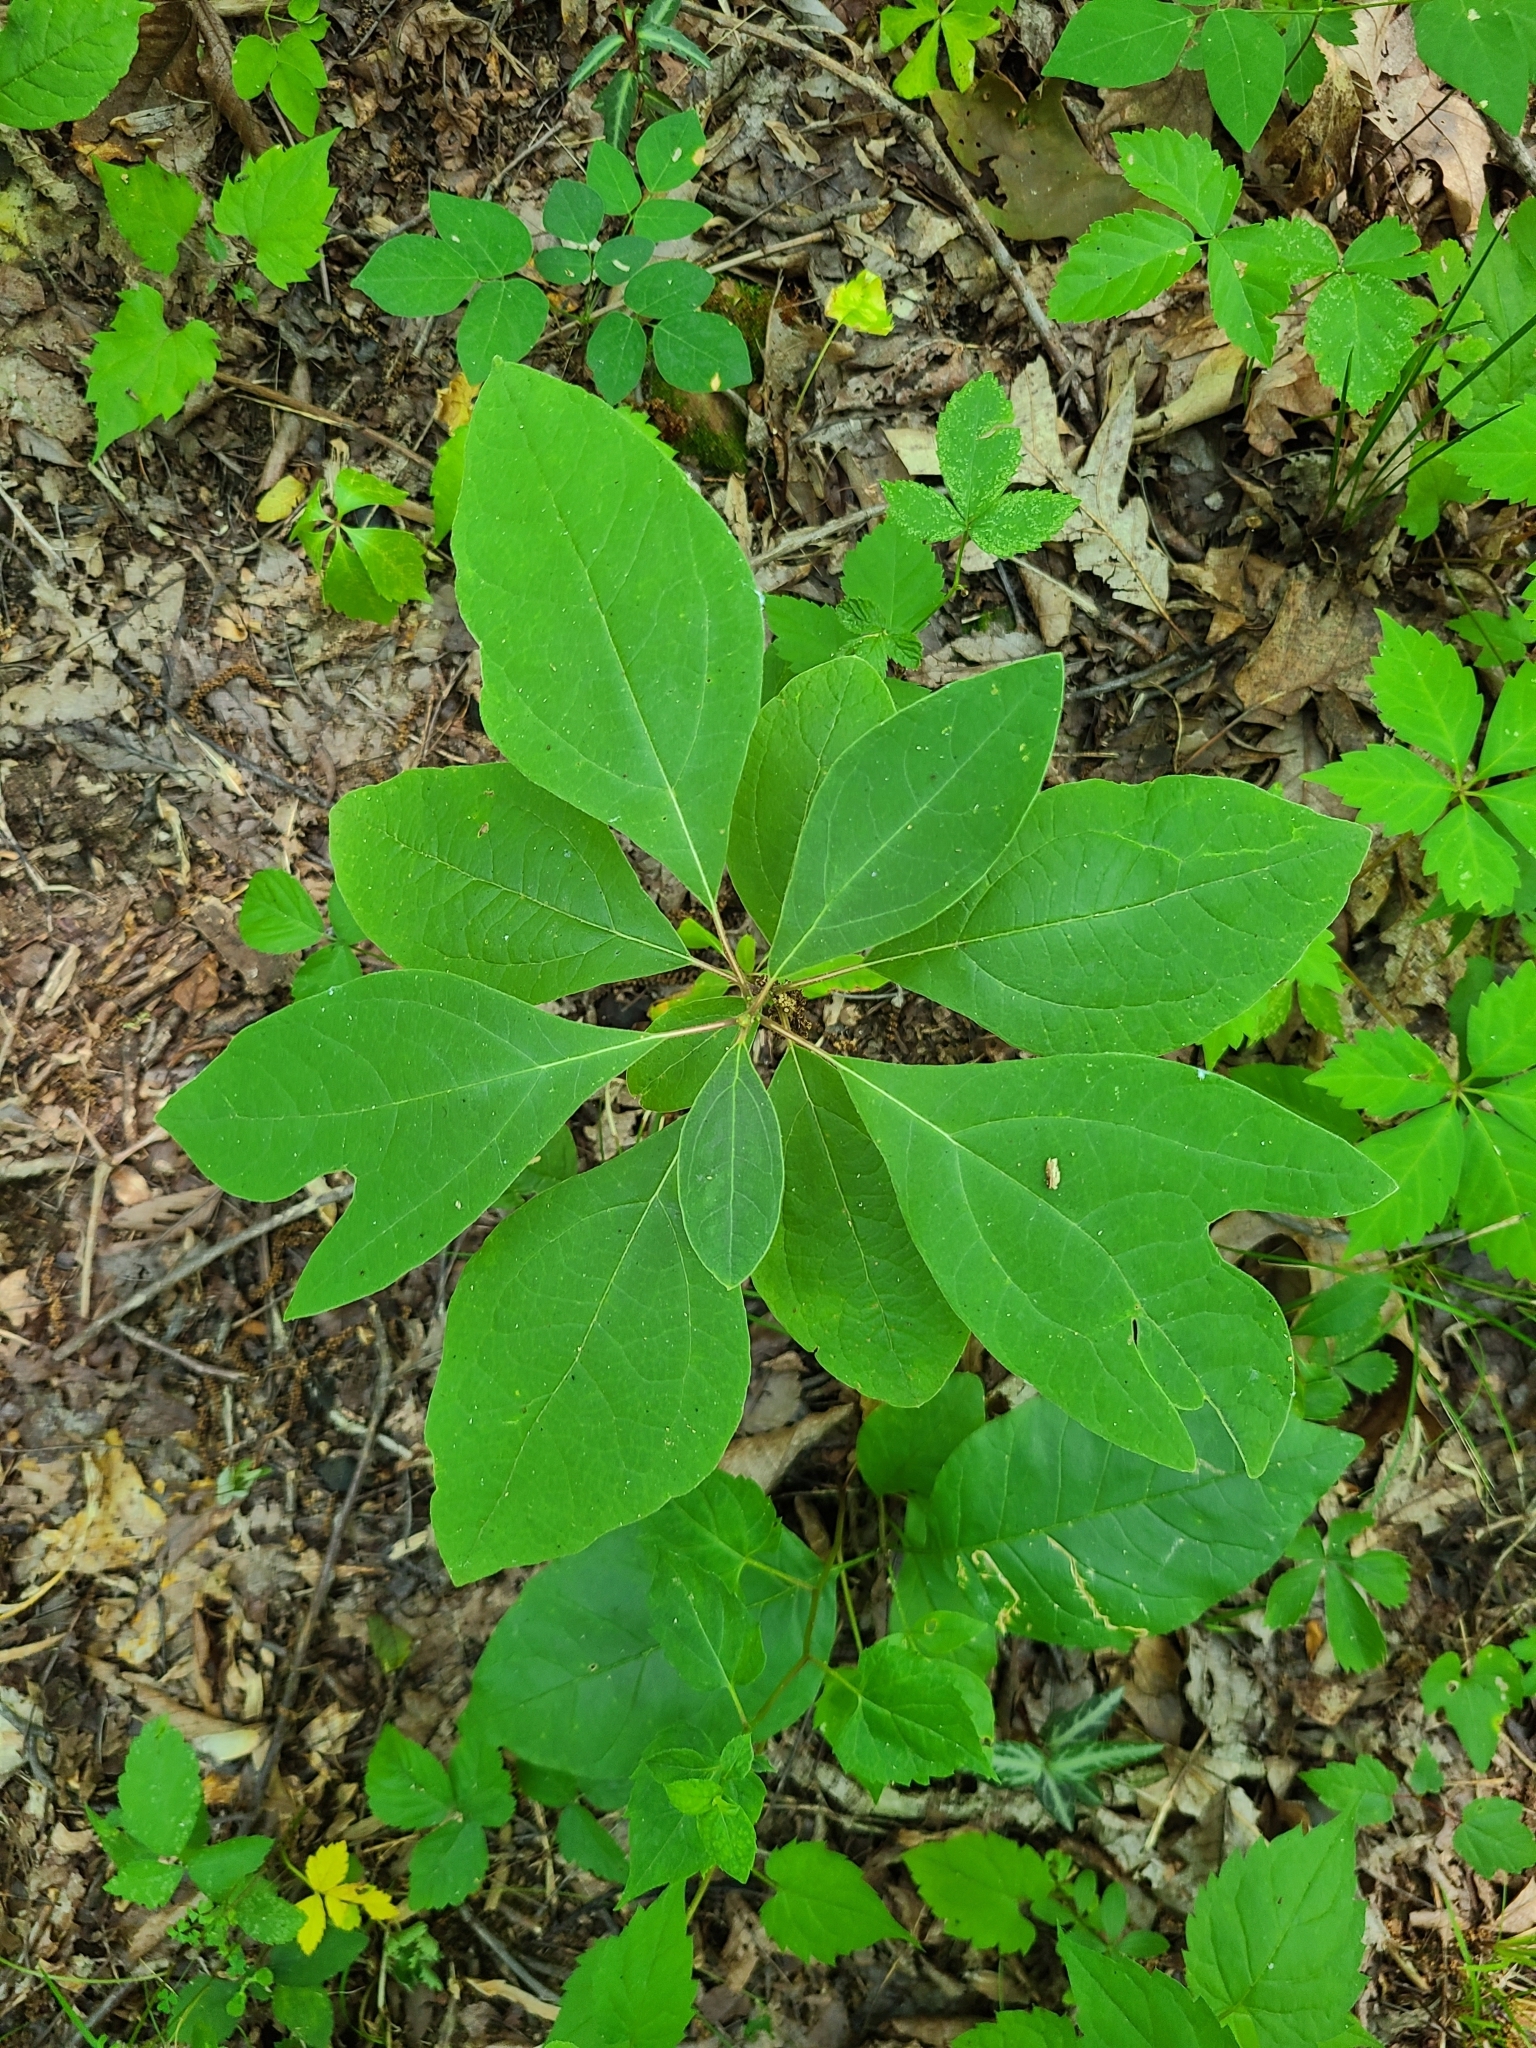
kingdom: Plantae
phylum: Tracheophyta
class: Magnoliopsida
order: Laurales
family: Lauraceae
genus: Sassafras
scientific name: Sassafras albidum
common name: Sassafras
